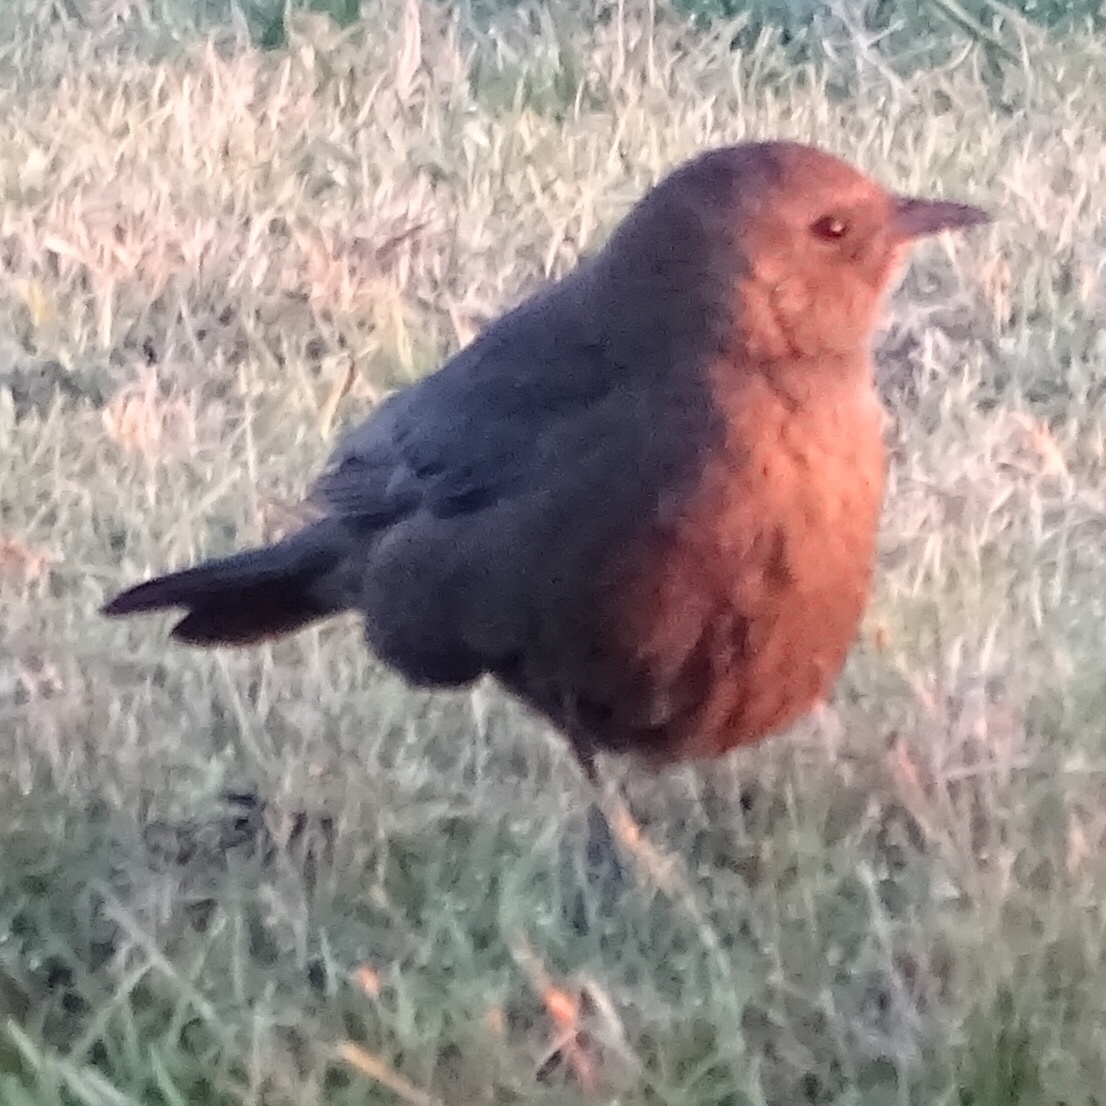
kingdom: Animalia
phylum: Chordata
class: Aves
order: Passeriformes
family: Icteridae
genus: Euphagus
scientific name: Euphagus cyanocephalus
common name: Brewer's blackbird
